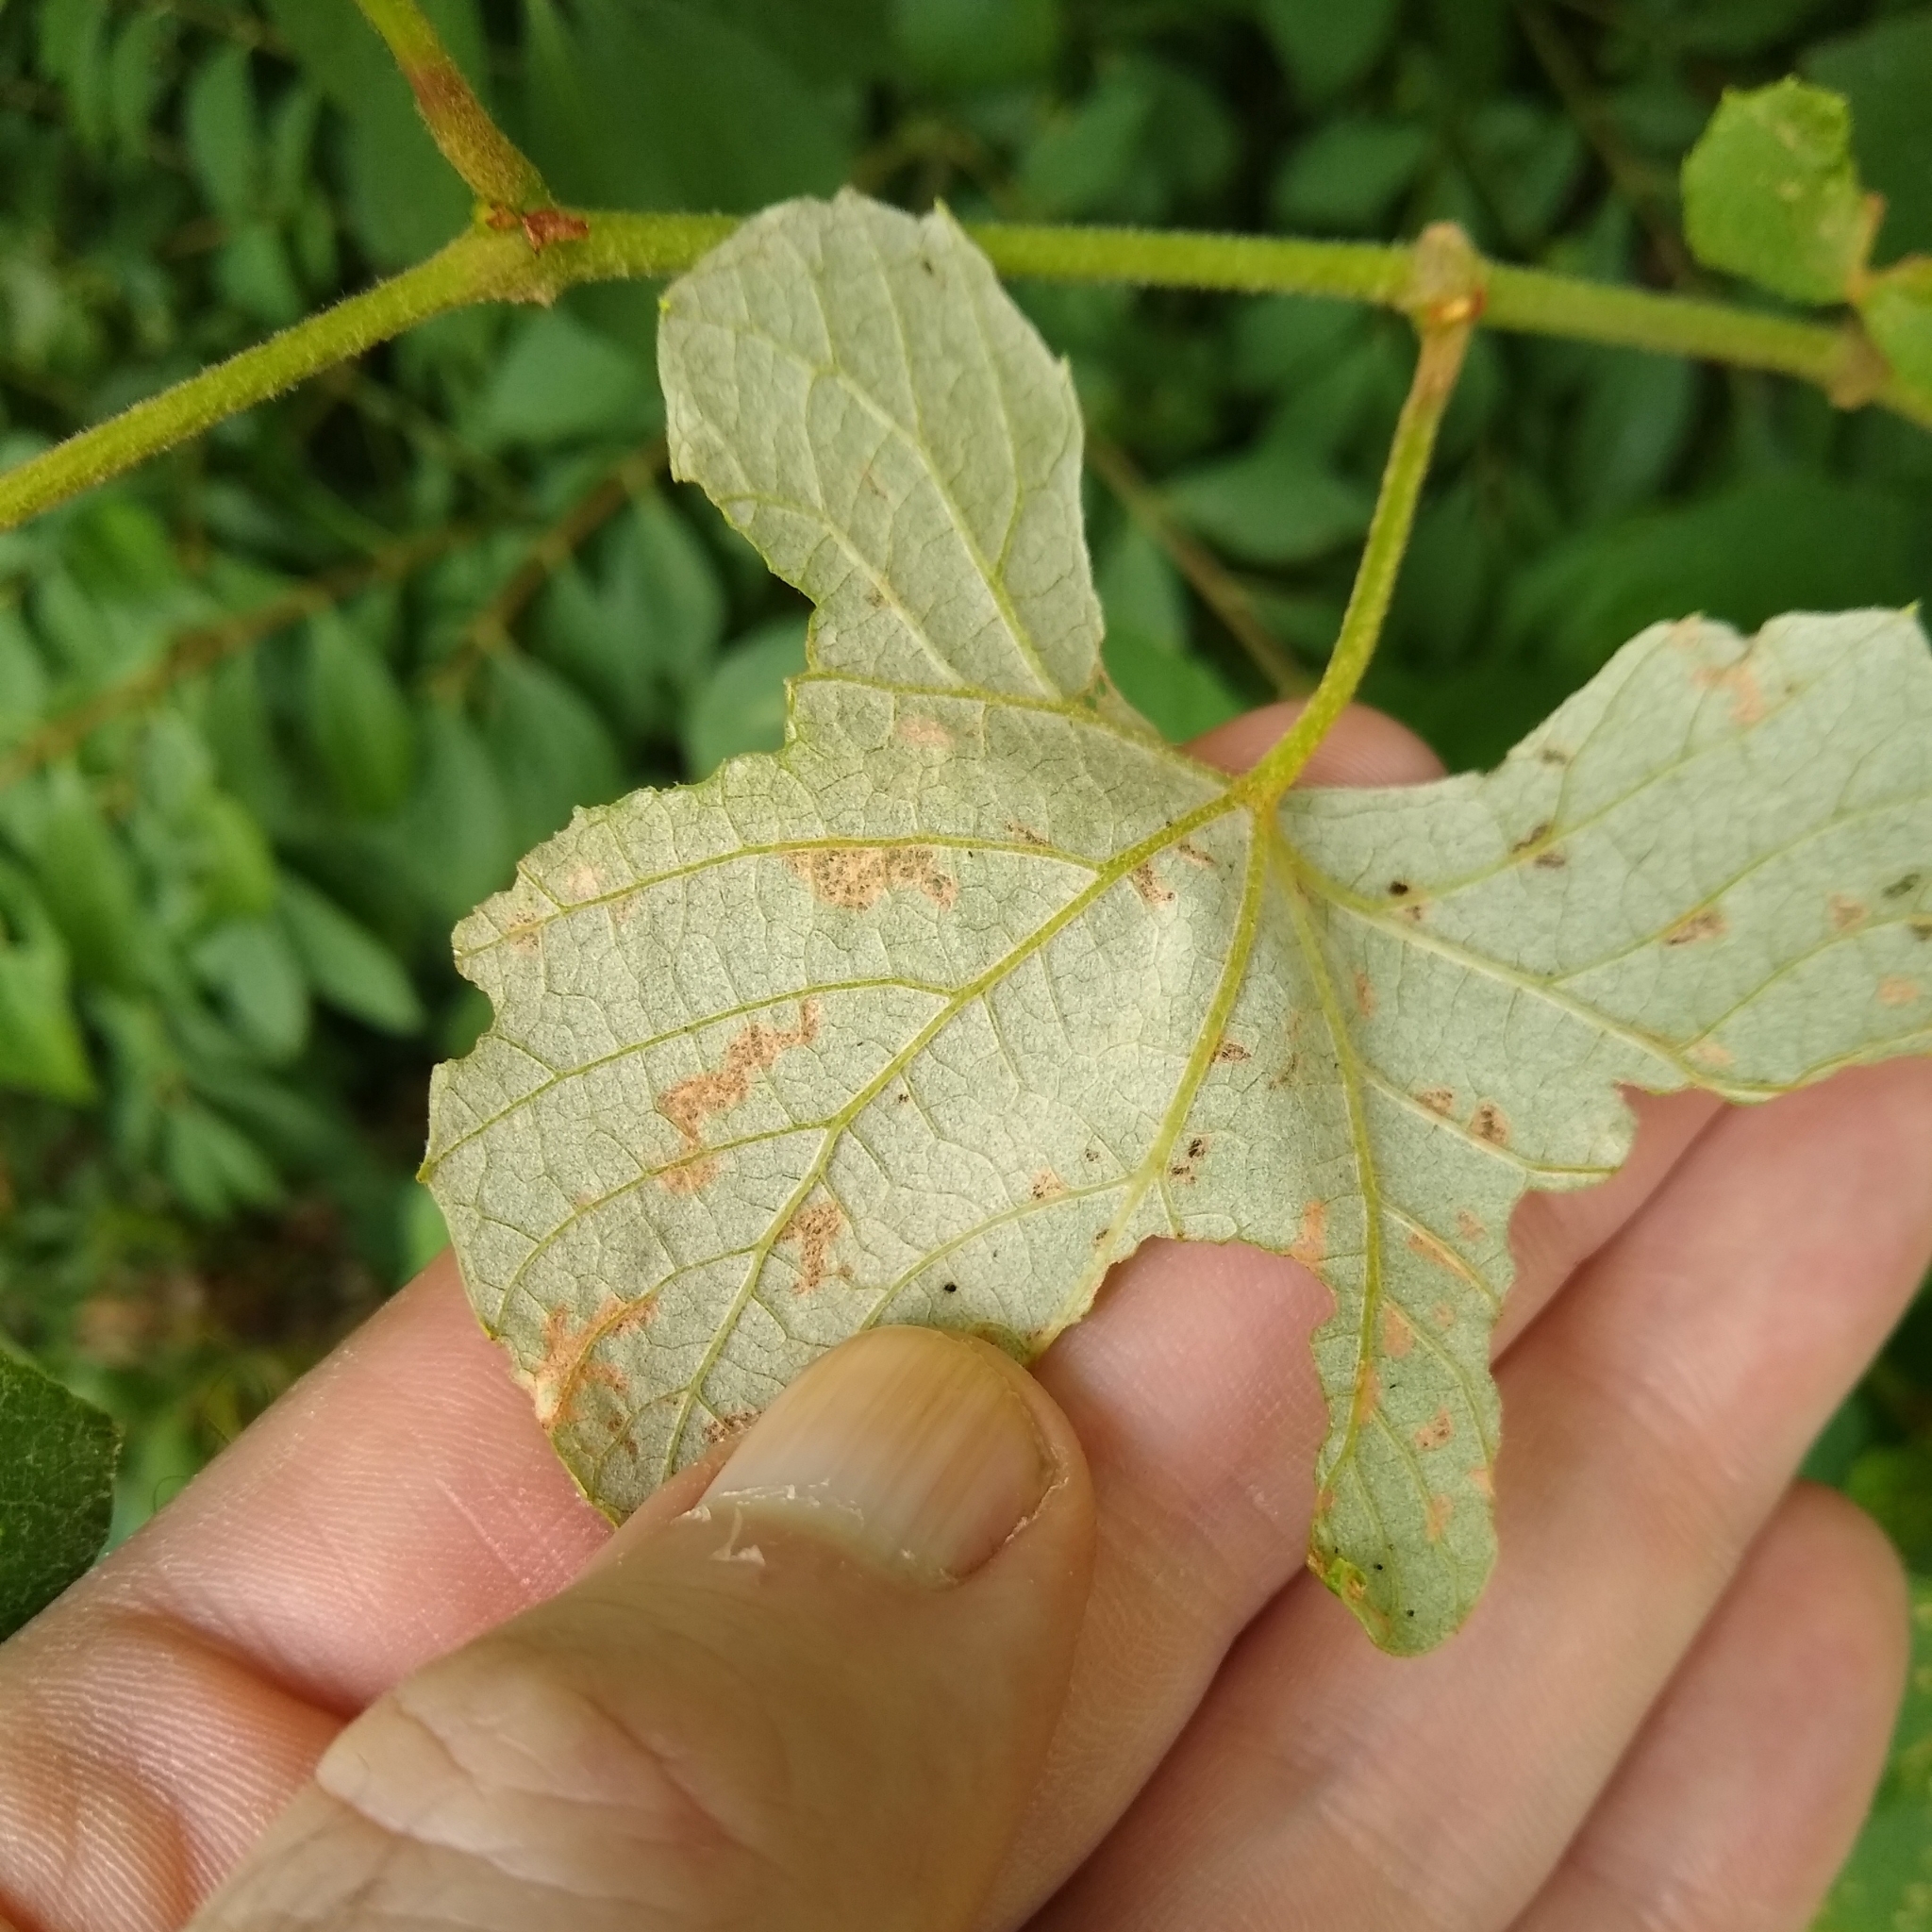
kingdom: Animalia
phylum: Arthropoda
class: Insecta
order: Lepidoptera
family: Gracillariidae
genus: Phyllocnistis
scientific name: Phyllocnistis vitifoliella
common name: Grape leaf-miner moth
